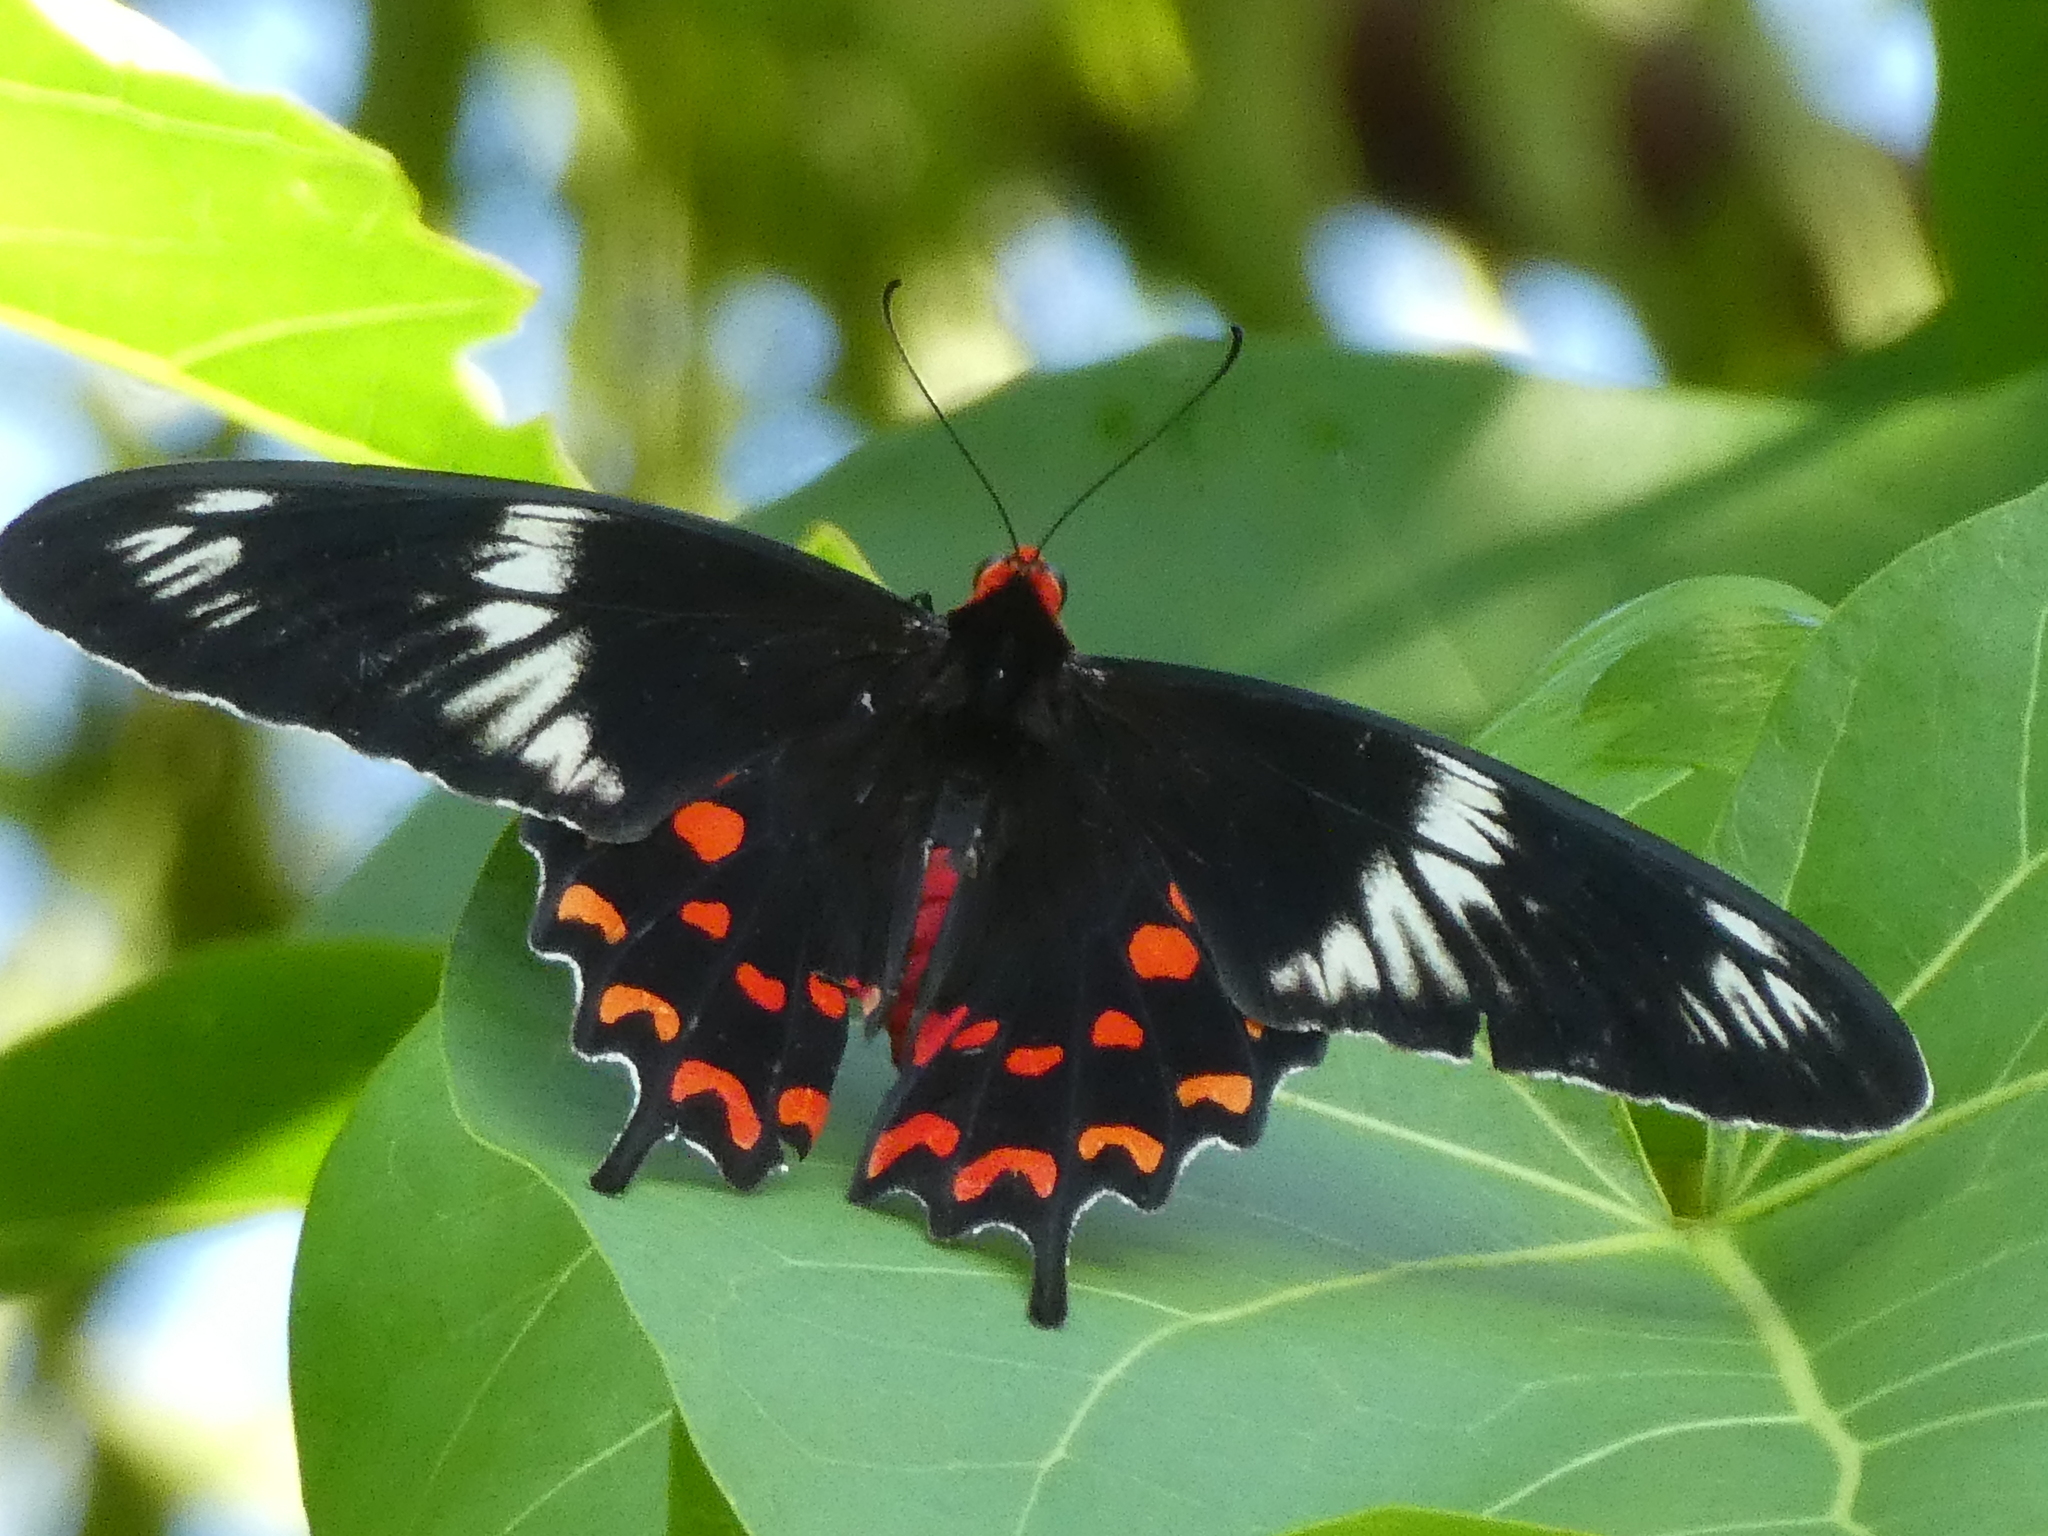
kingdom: Animalia
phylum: Arthropoda
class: Insecta
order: Lepidoptera
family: Papilionidae
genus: Pachliopta
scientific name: Pachliopta hector
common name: Crimson rose
